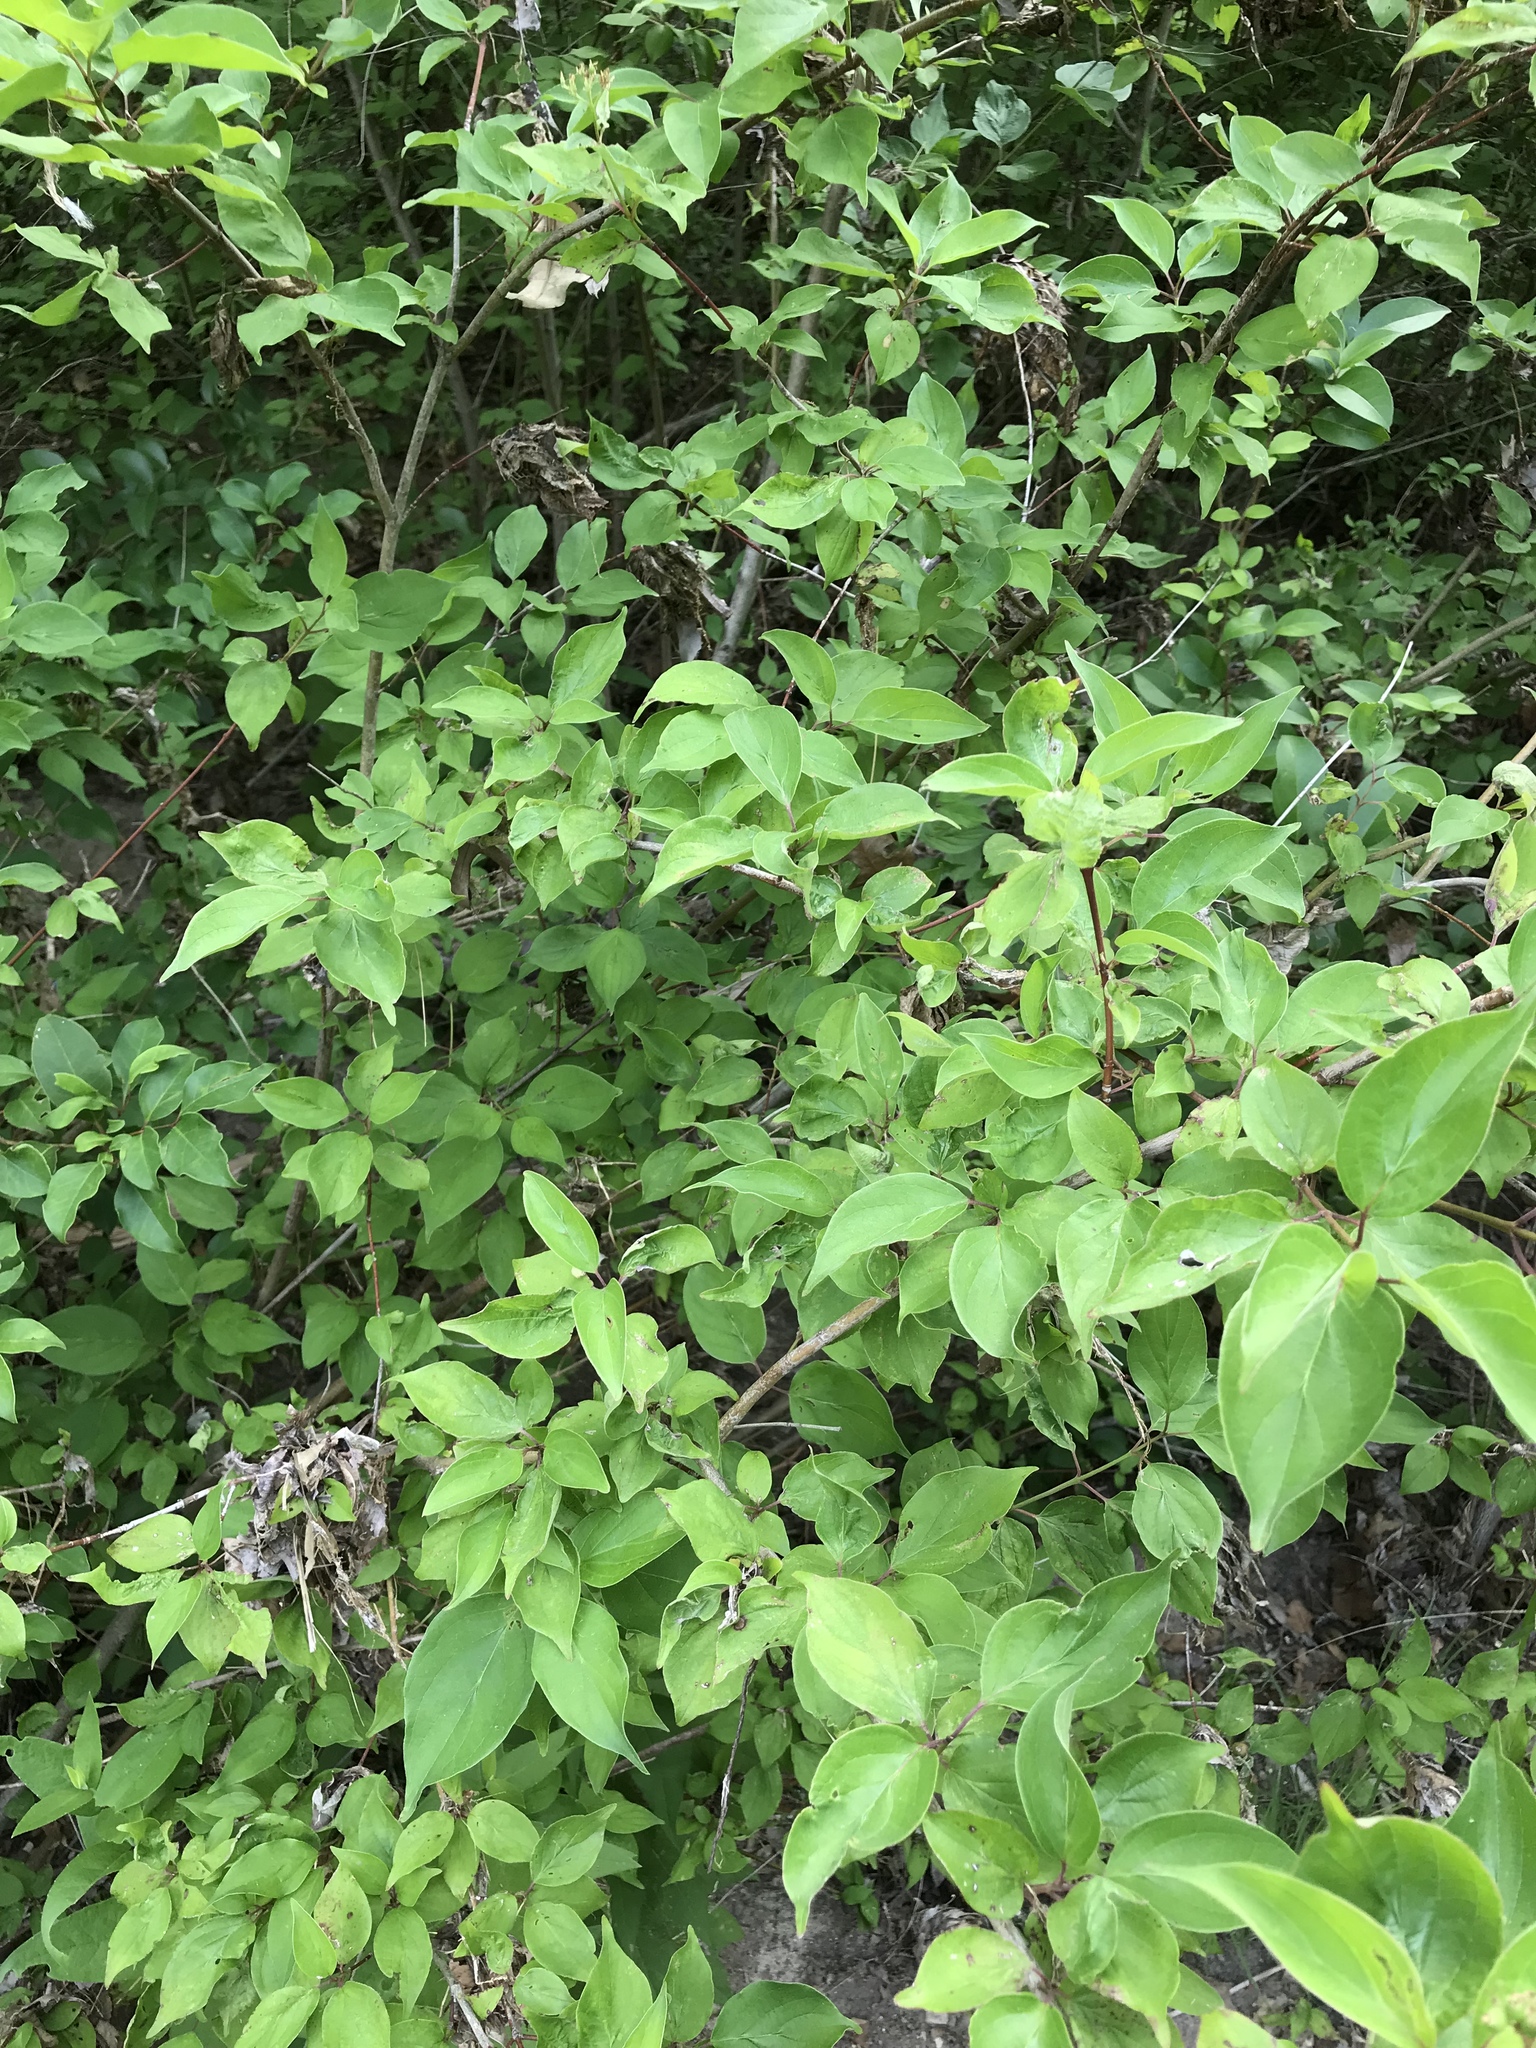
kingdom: Plantae
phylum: Tracheophyta
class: Magnoliopsida
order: Cornales
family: Cornaceae
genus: Cornus
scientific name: Cornus drummondii
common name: Rough-leaf dogwood
